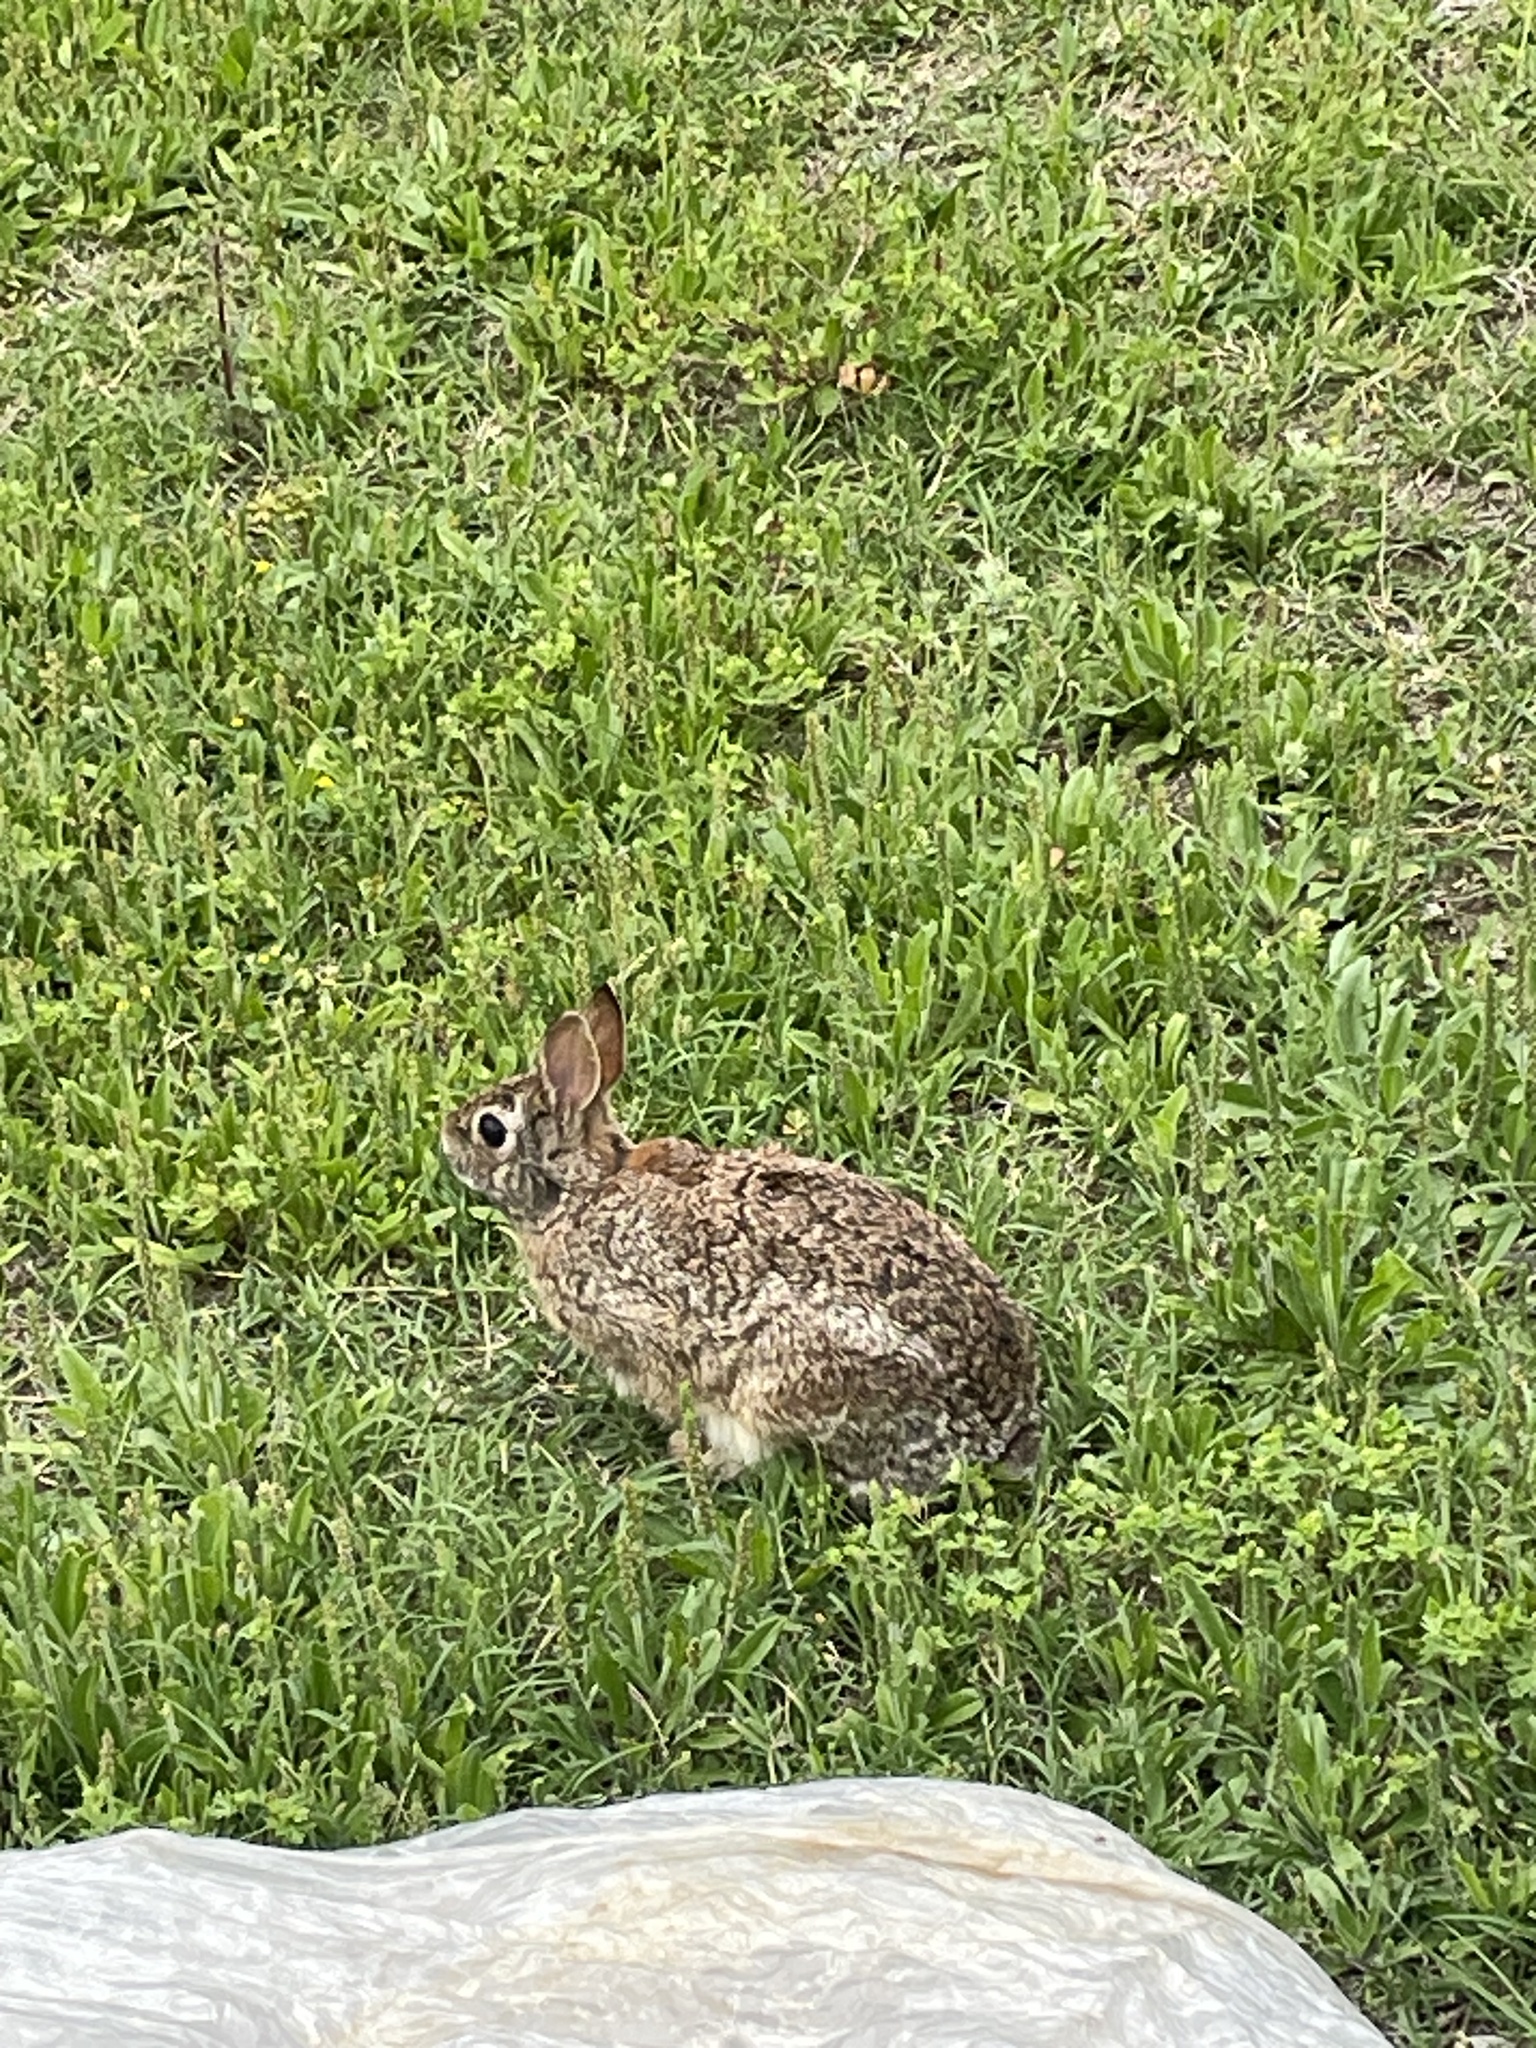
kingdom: Animalia
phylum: Chordata
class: Mammalia
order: Lagomorpha
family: Leporidae
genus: Sylvilagus
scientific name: Sylvilagus floridanus
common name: Eastern cottontail
